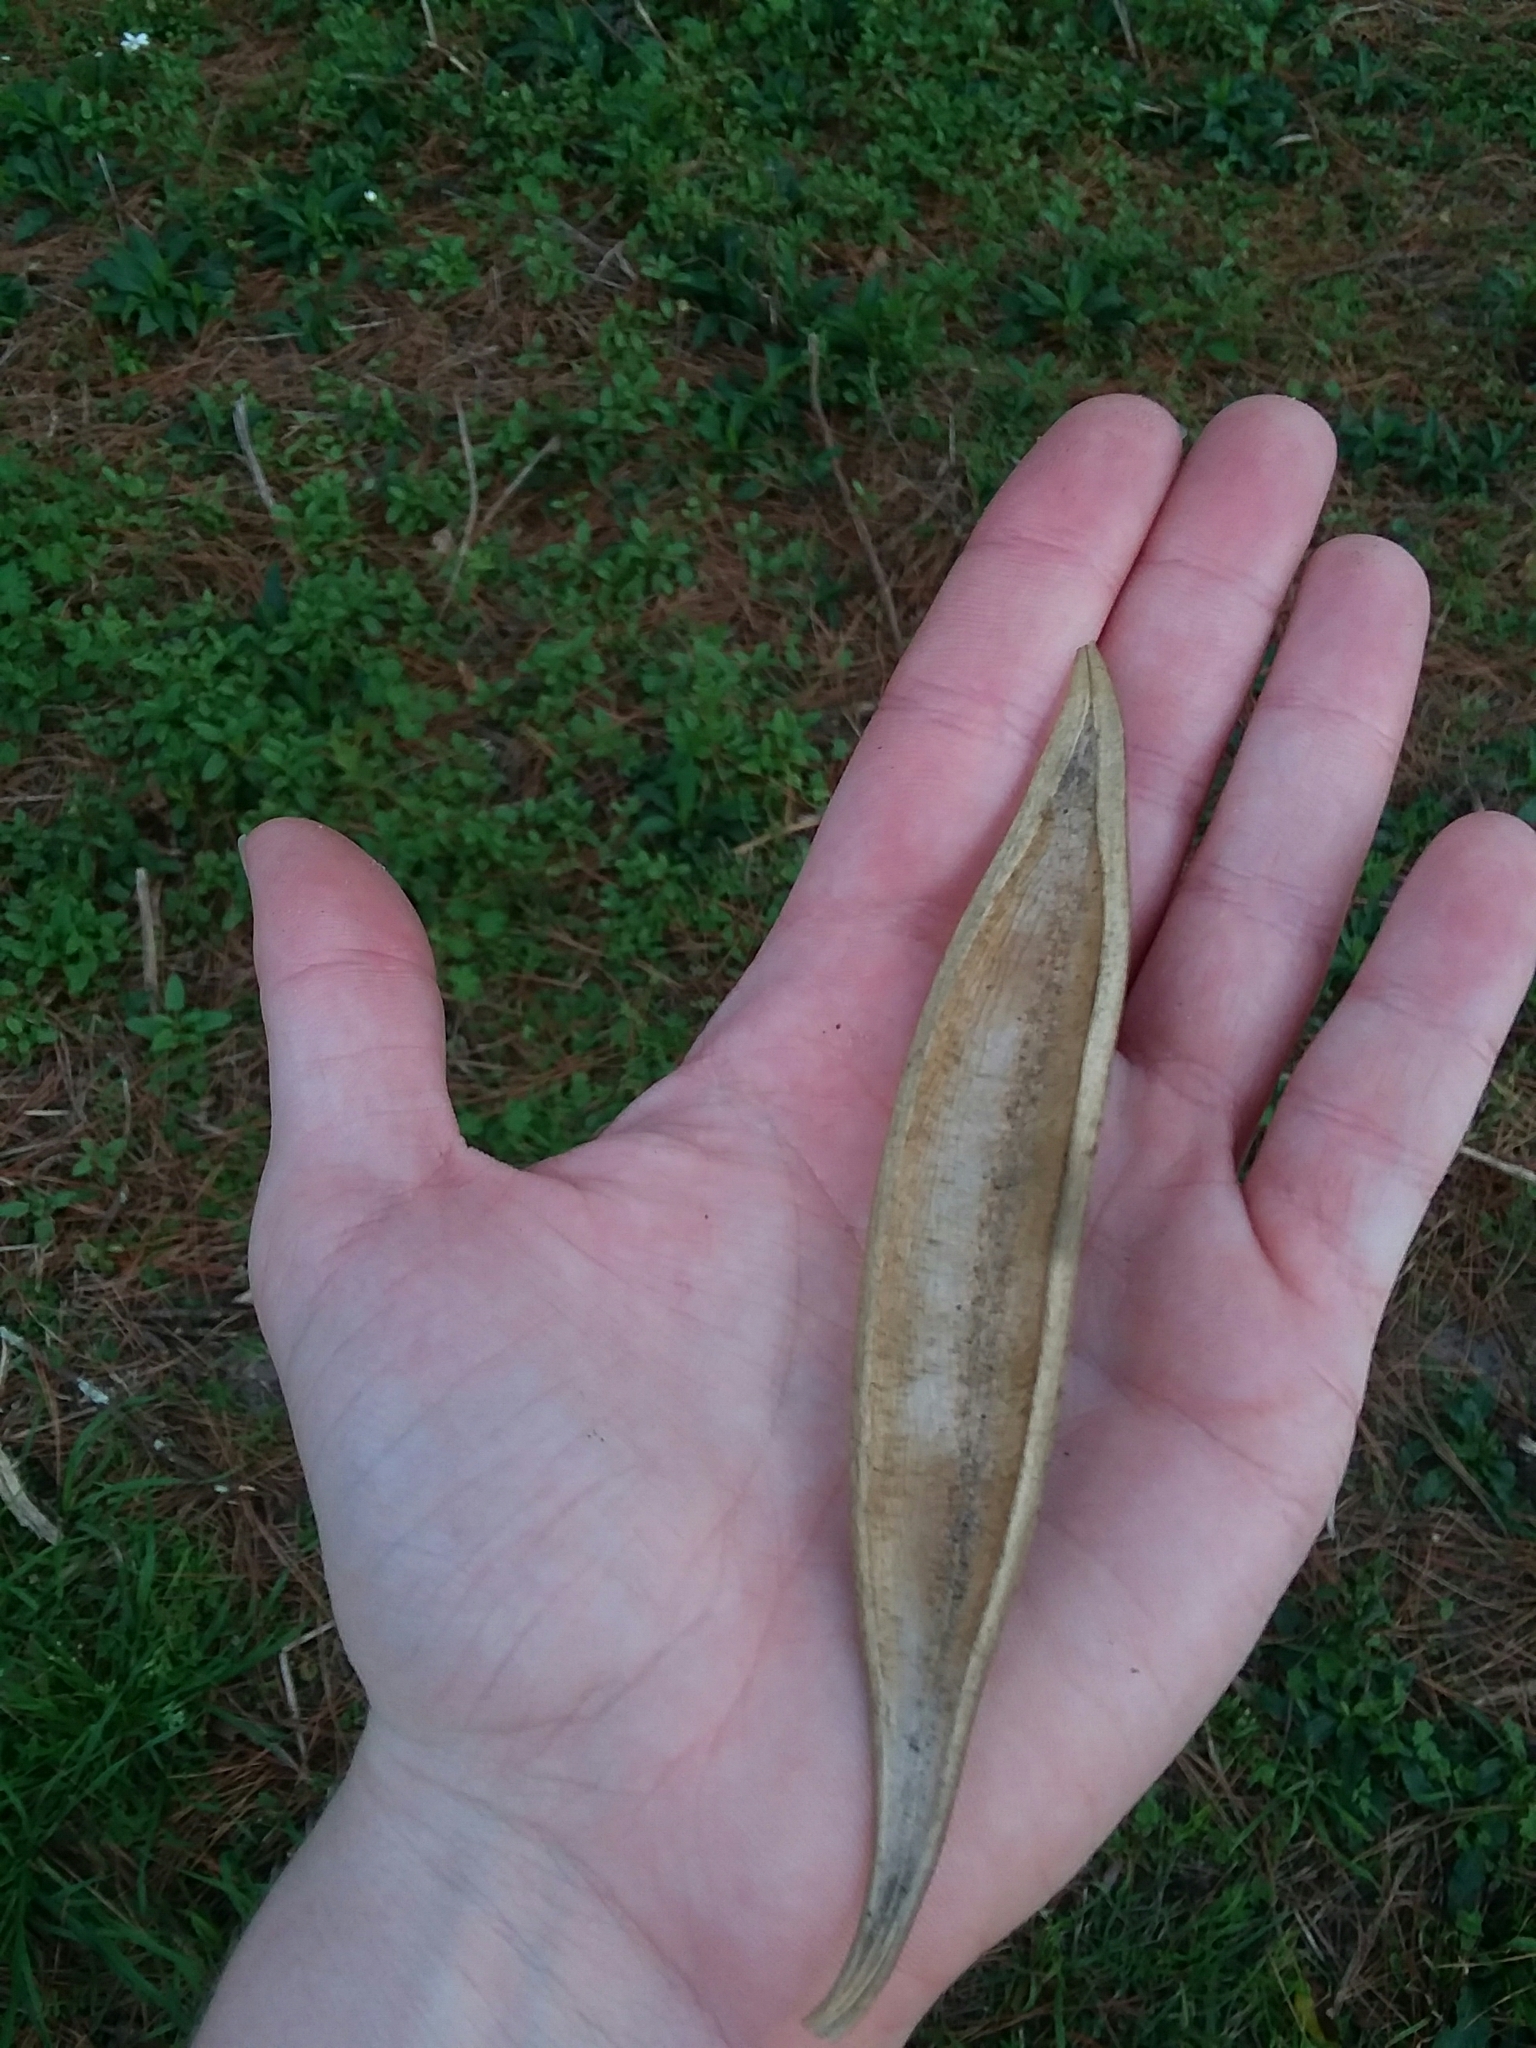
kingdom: Plantae
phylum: Tracheophyta
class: Magnoliopsida
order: Lamiales
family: Bignoniaceae
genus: Campsis
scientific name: Campsis radicans
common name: Trumpet-creeper
